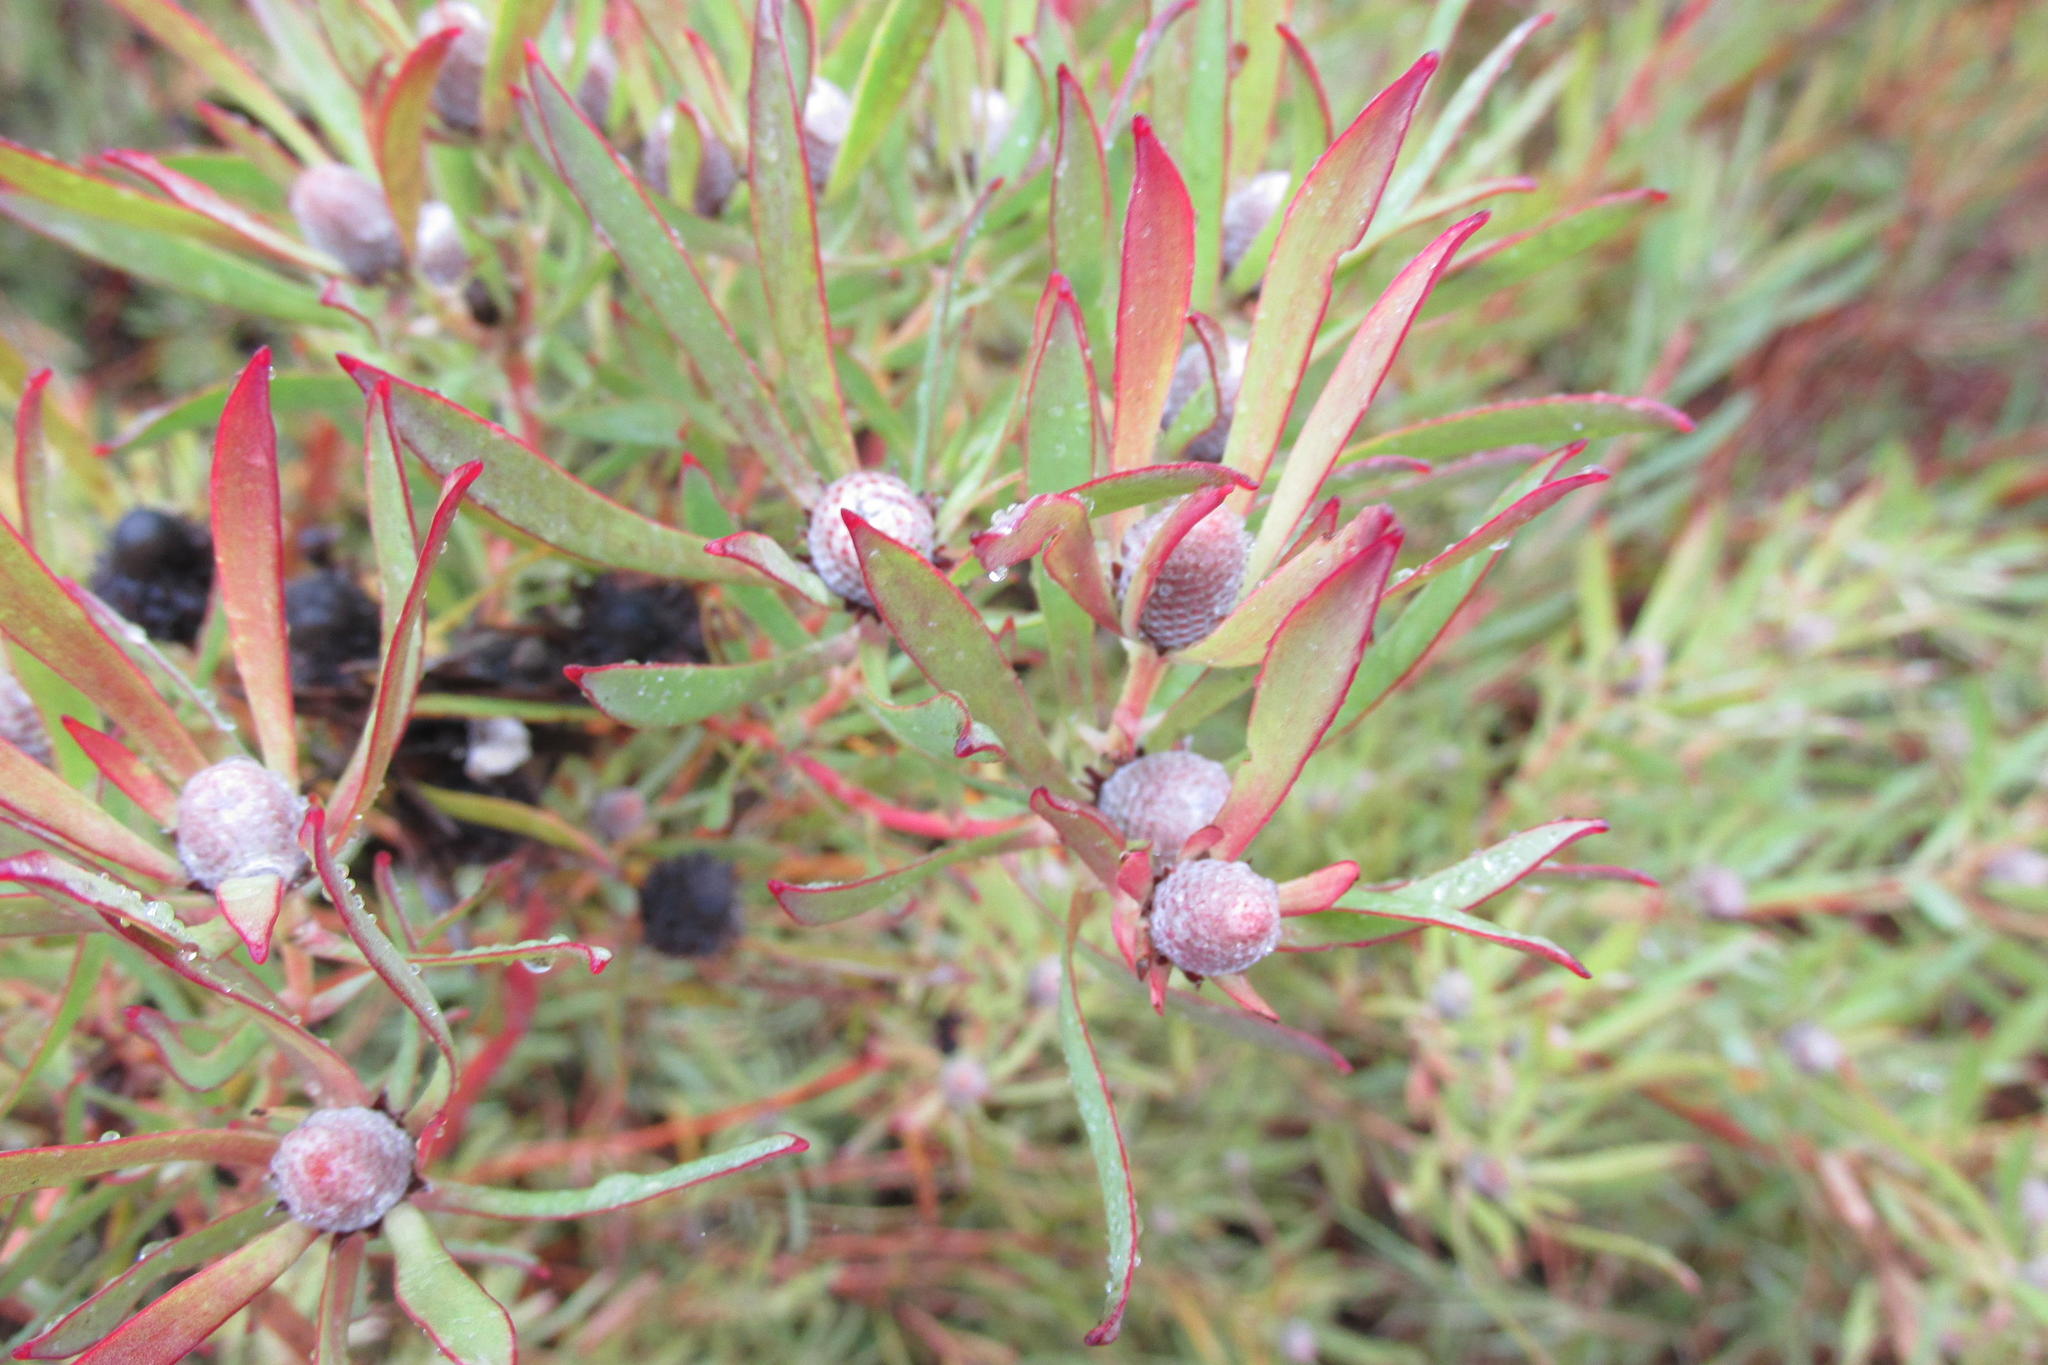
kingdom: Plantae
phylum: Tracheophyta
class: Magnoliopsida
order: Proteales
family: Proteaceae
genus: Leucadendron
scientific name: Leucadendron salignum
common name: Common sunshine conebush
